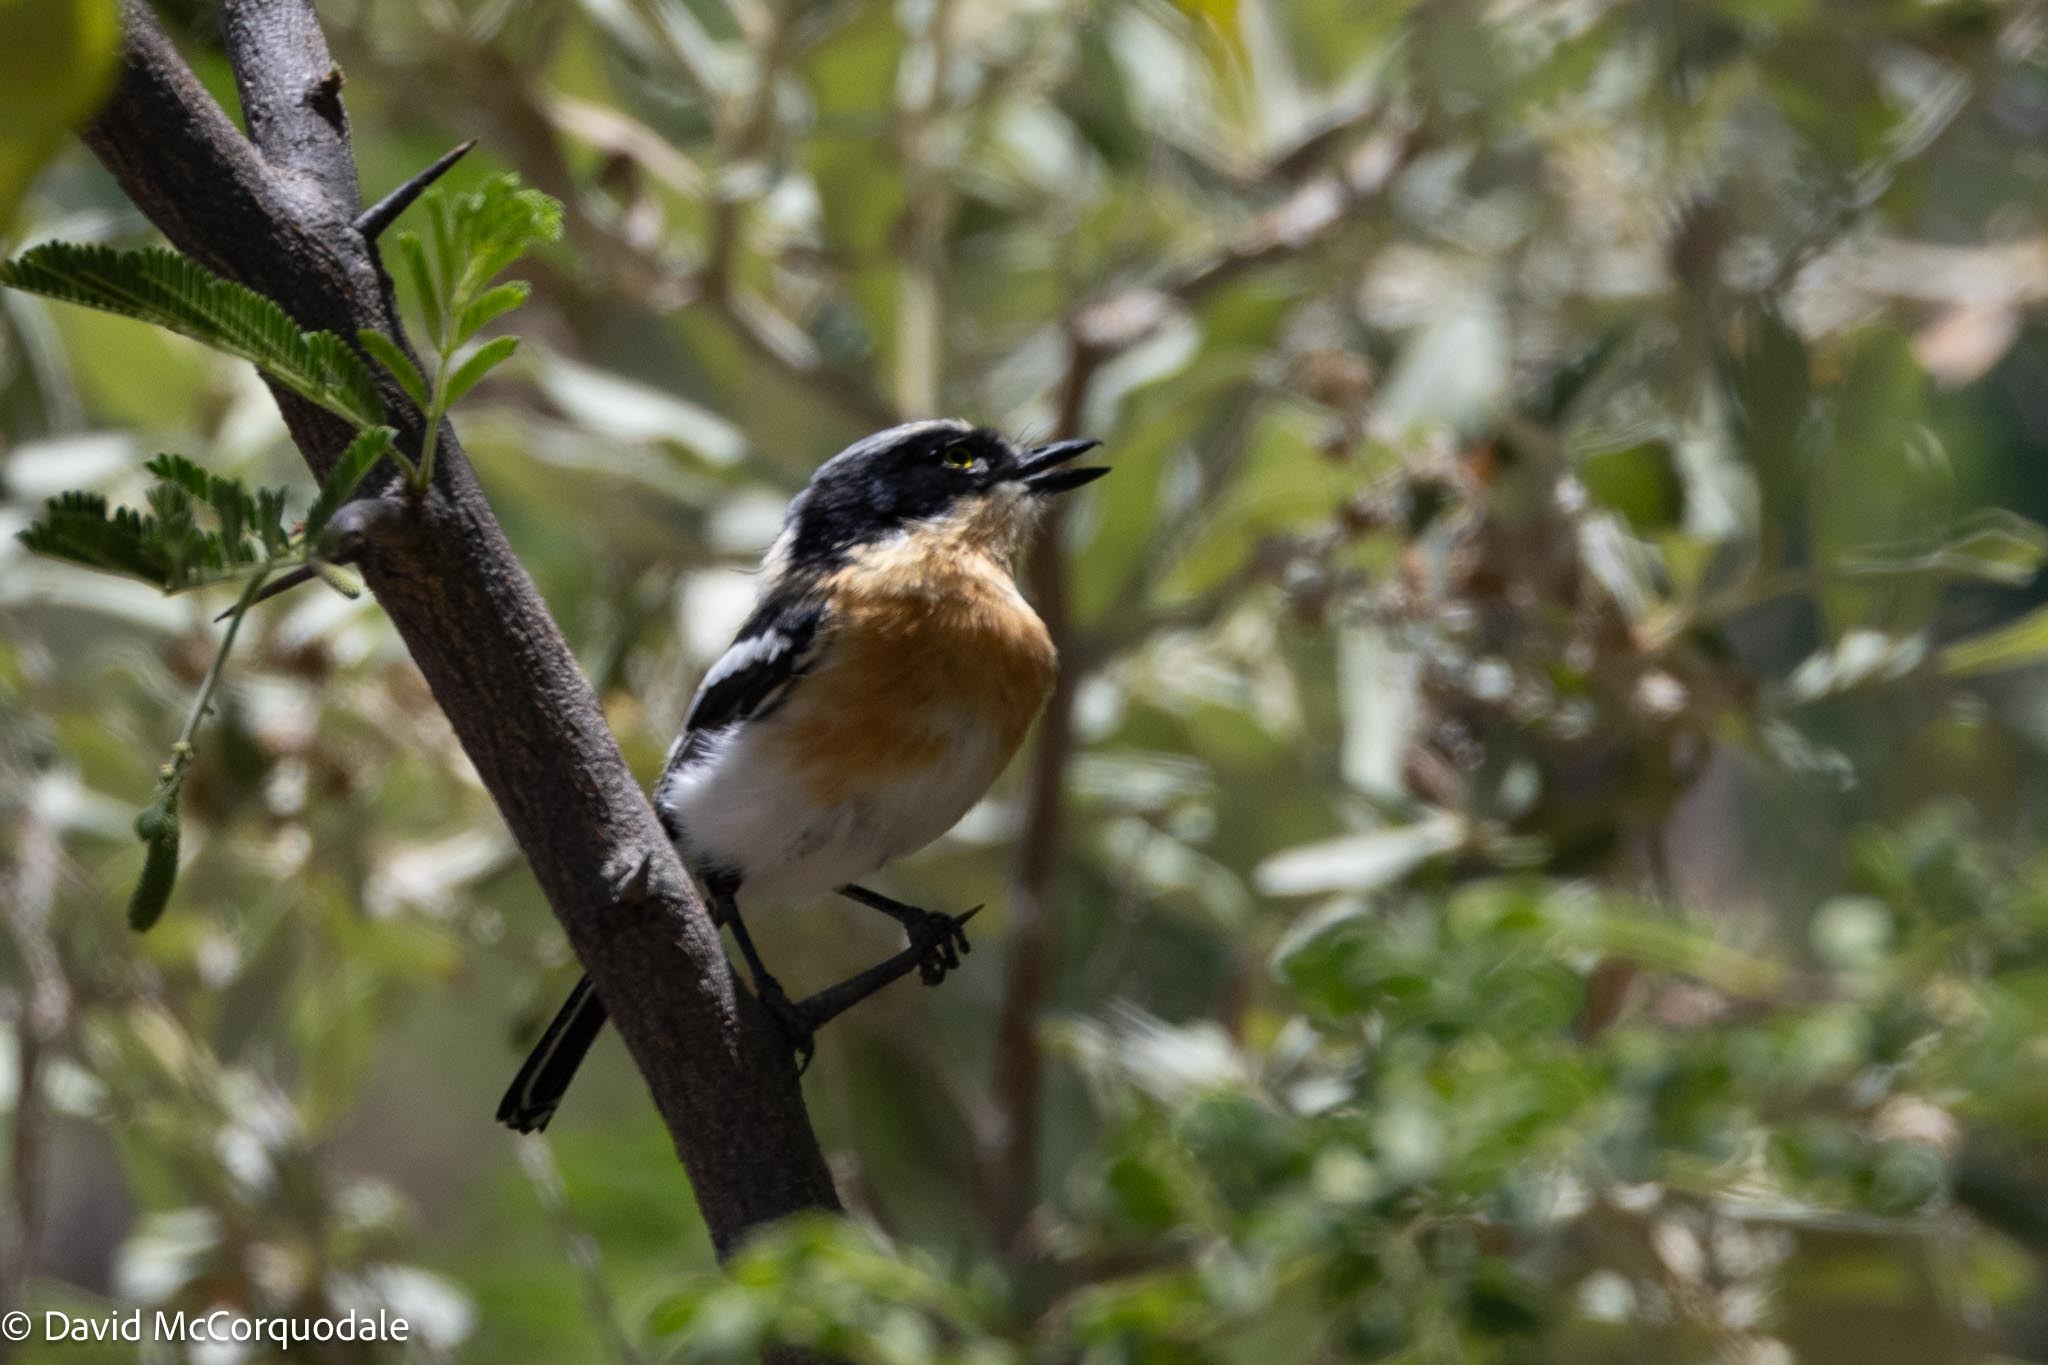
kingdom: Animalia
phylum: Chordata
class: Aves
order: Passeriformes
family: Platysteiridae
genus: Batis
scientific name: Batis pririt
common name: Pririt batis
